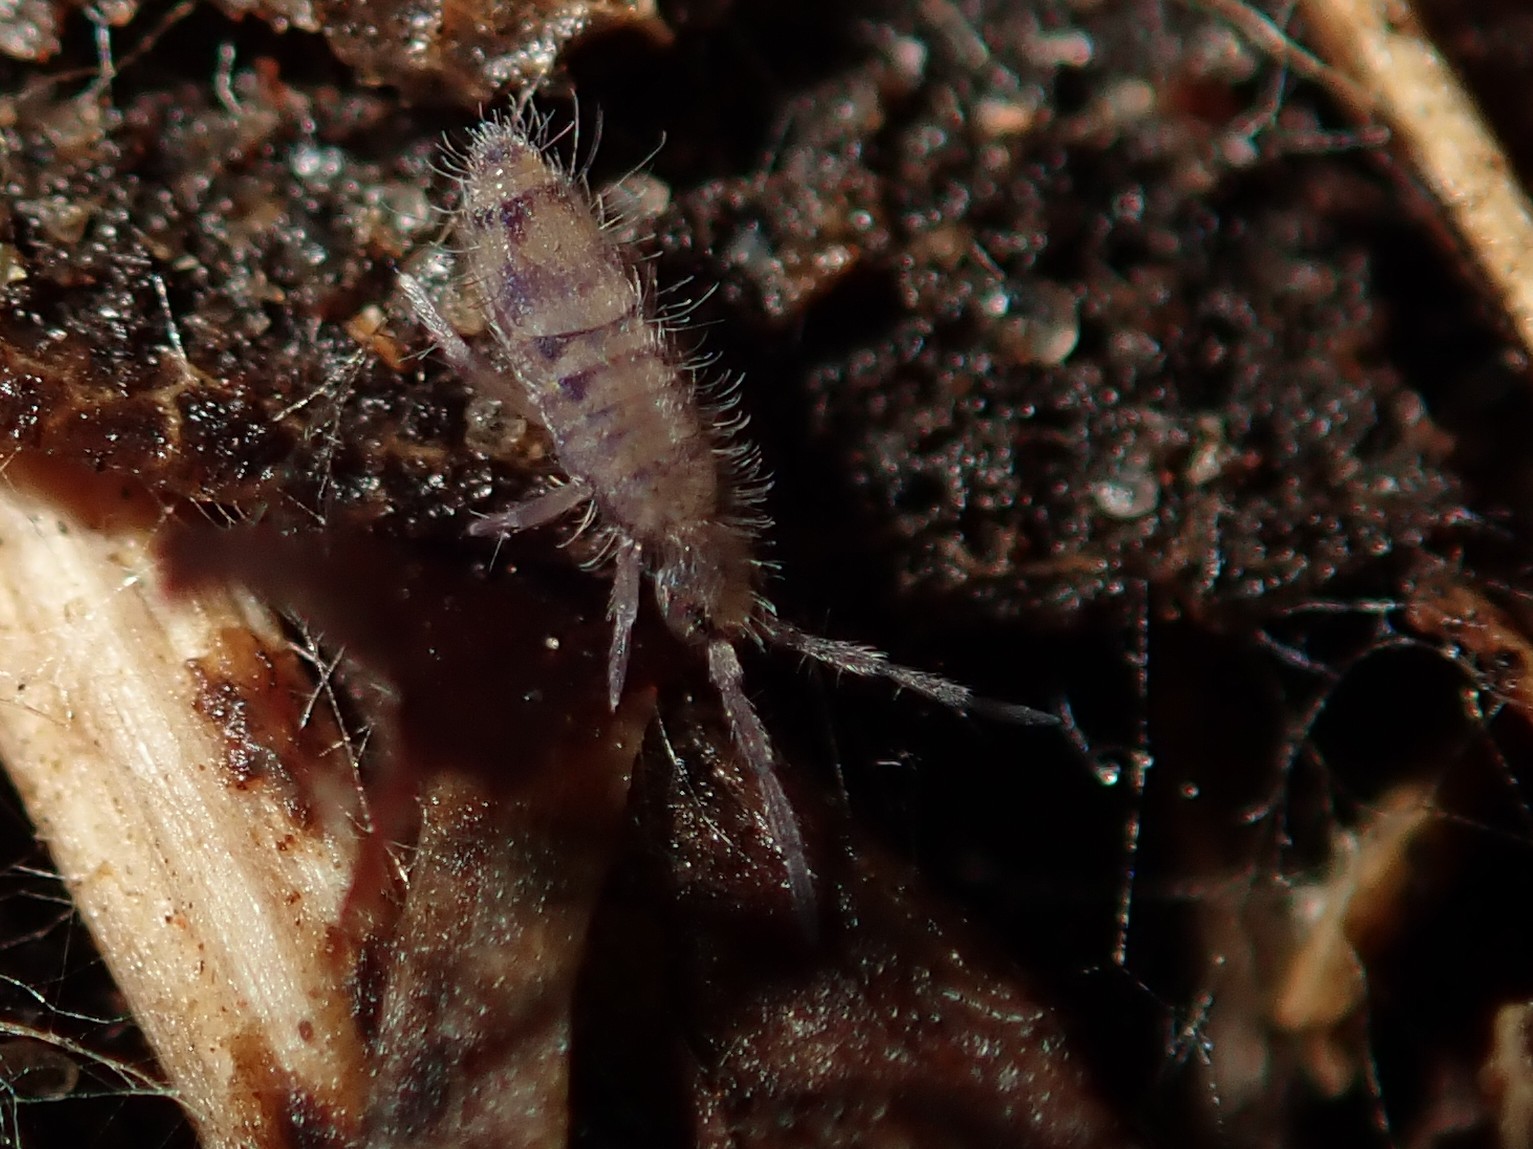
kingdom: Animalia
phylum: Arthropoda
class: Collembola
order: Entomobryomorpha
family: Entomobryidae
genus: Entomobrya
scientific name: Entomobrya multifasciata
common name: Springtail
